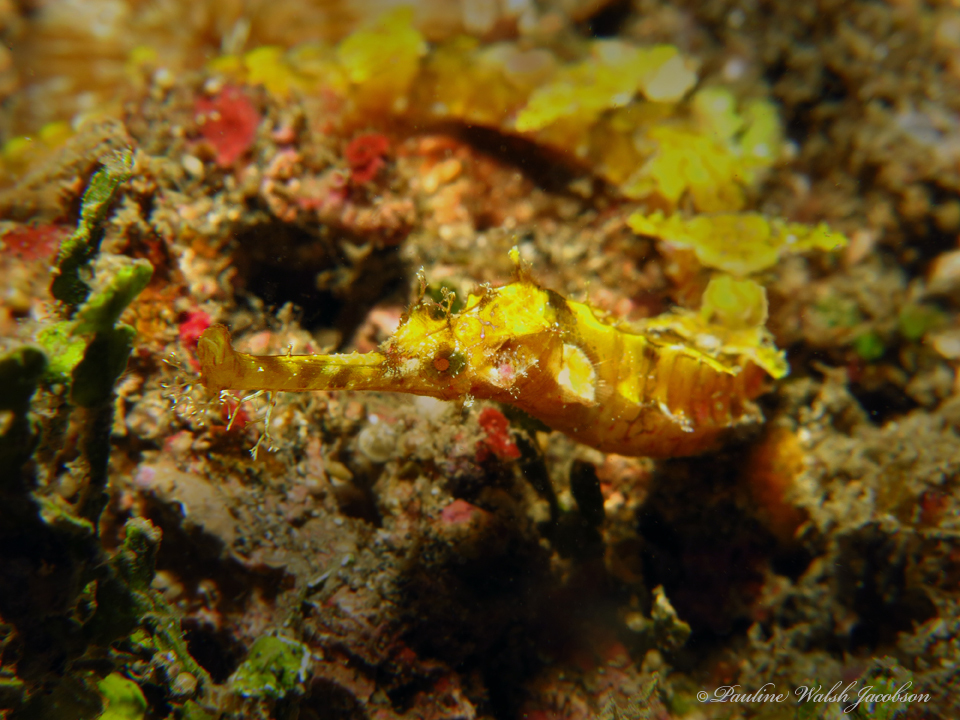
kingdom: Animalia
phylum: Chordata
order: Syngnathiformes
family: Syngnathidae
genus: Halicampus
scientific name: Halicampus macrorhynchus
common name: Ornate pipefish
